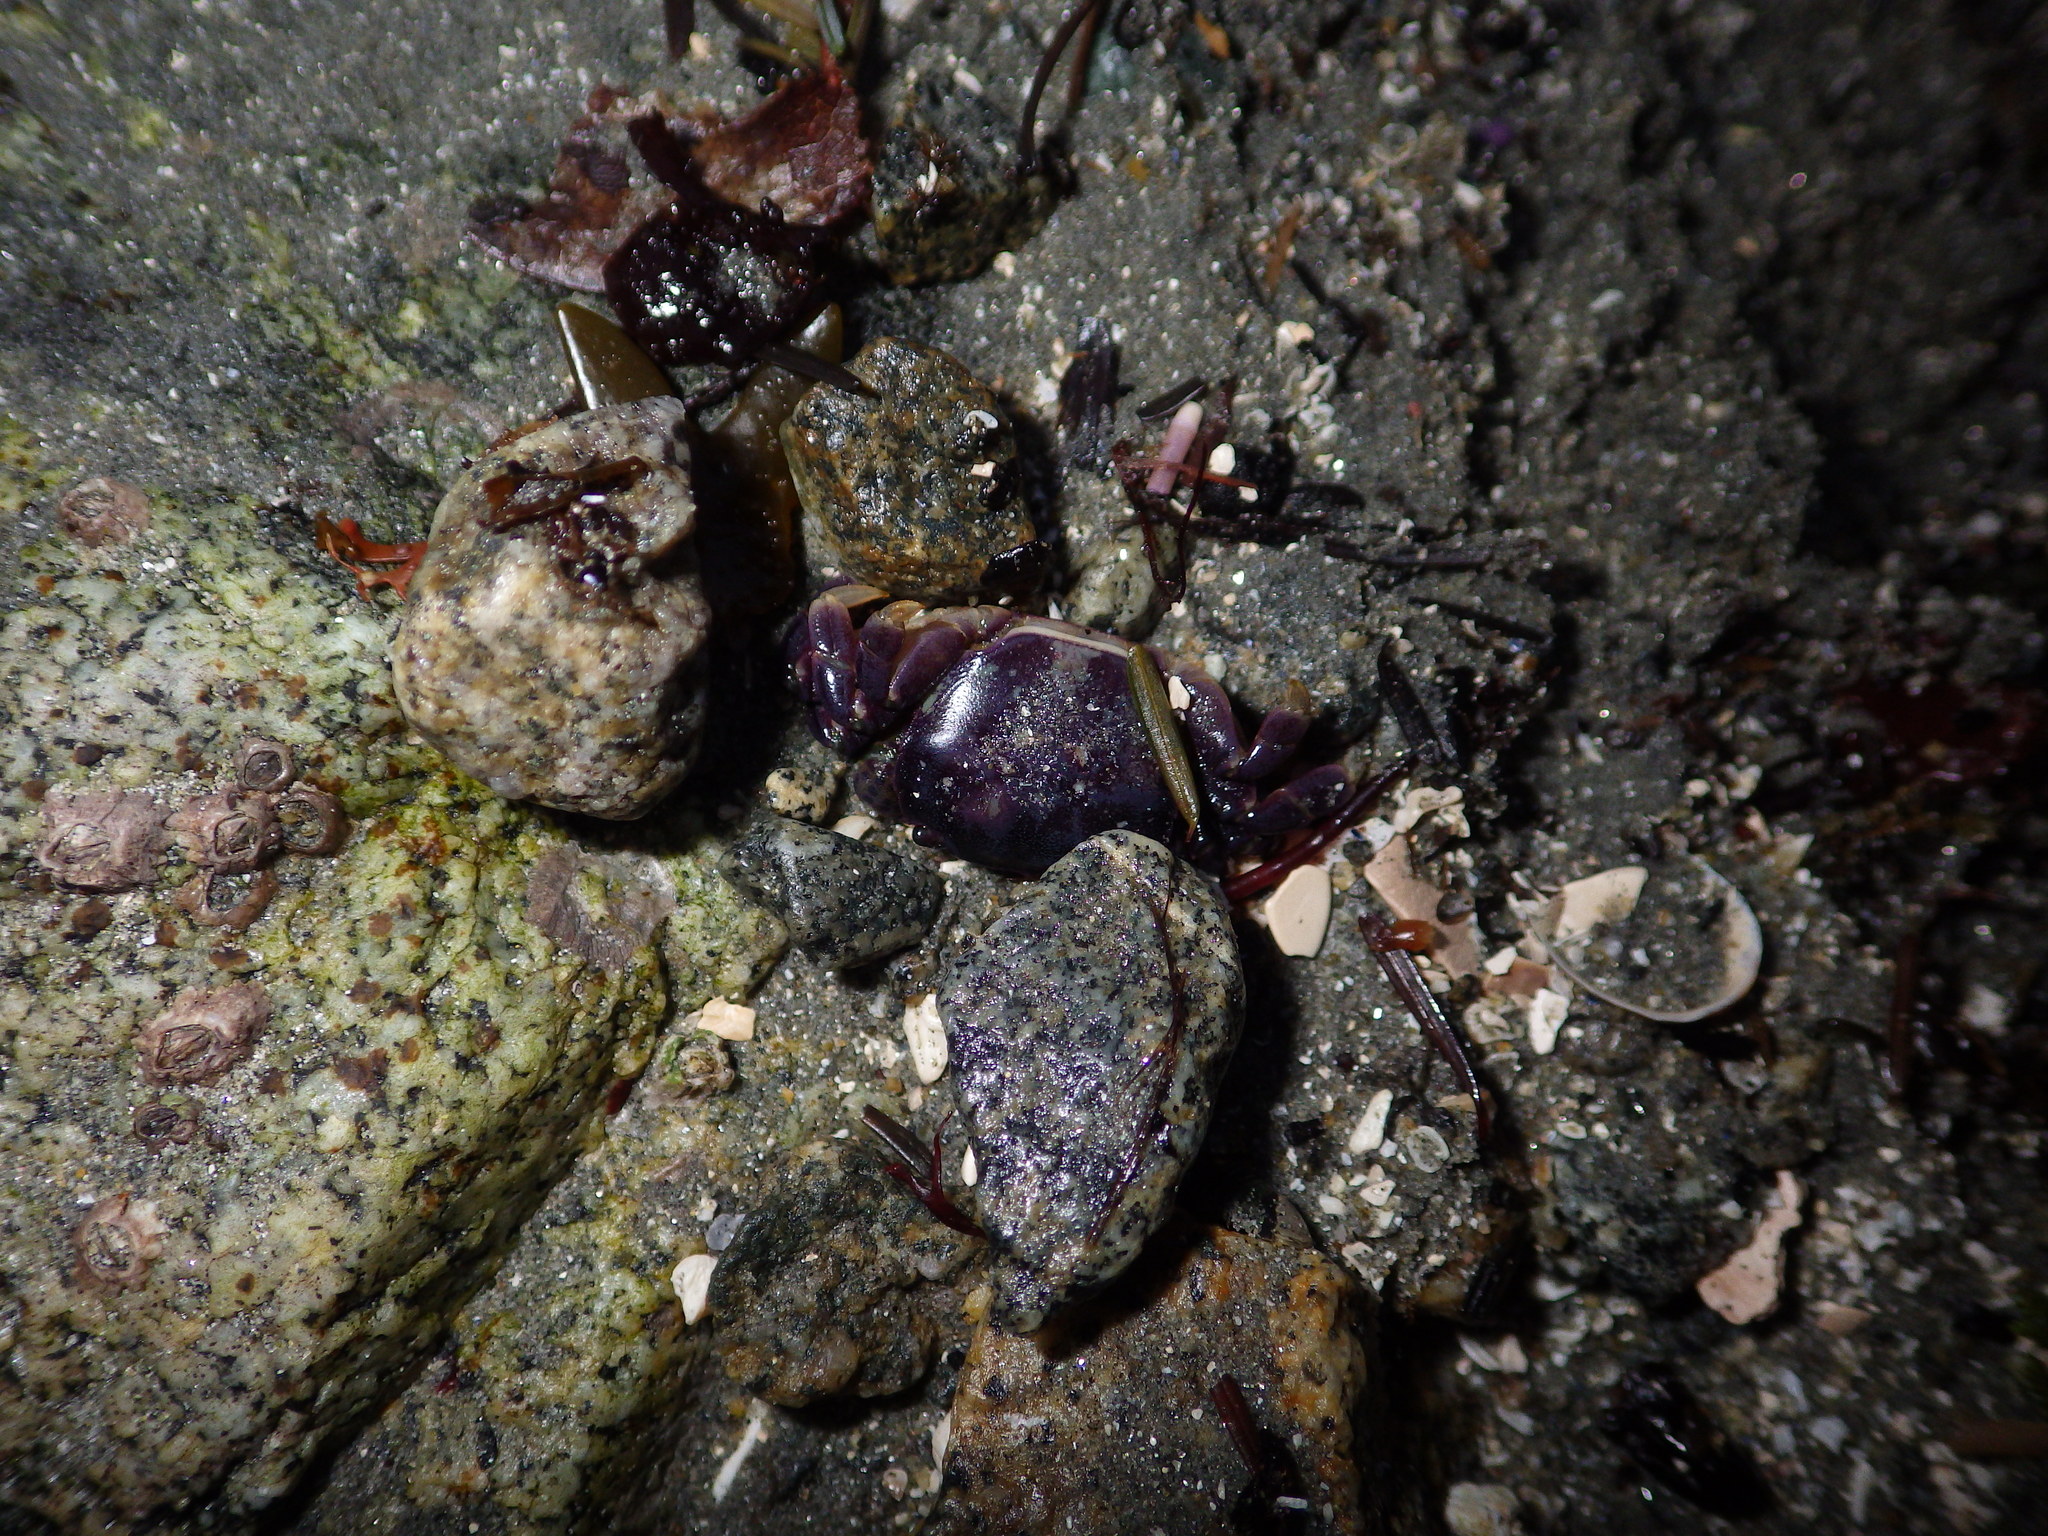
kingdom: Animalia
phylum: Arthropoda
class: Malacostraca
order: Decapoda
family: Varunidae
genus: Hemigrapsus
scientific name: Hemigrapsus nudus
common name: Purple shore crab
